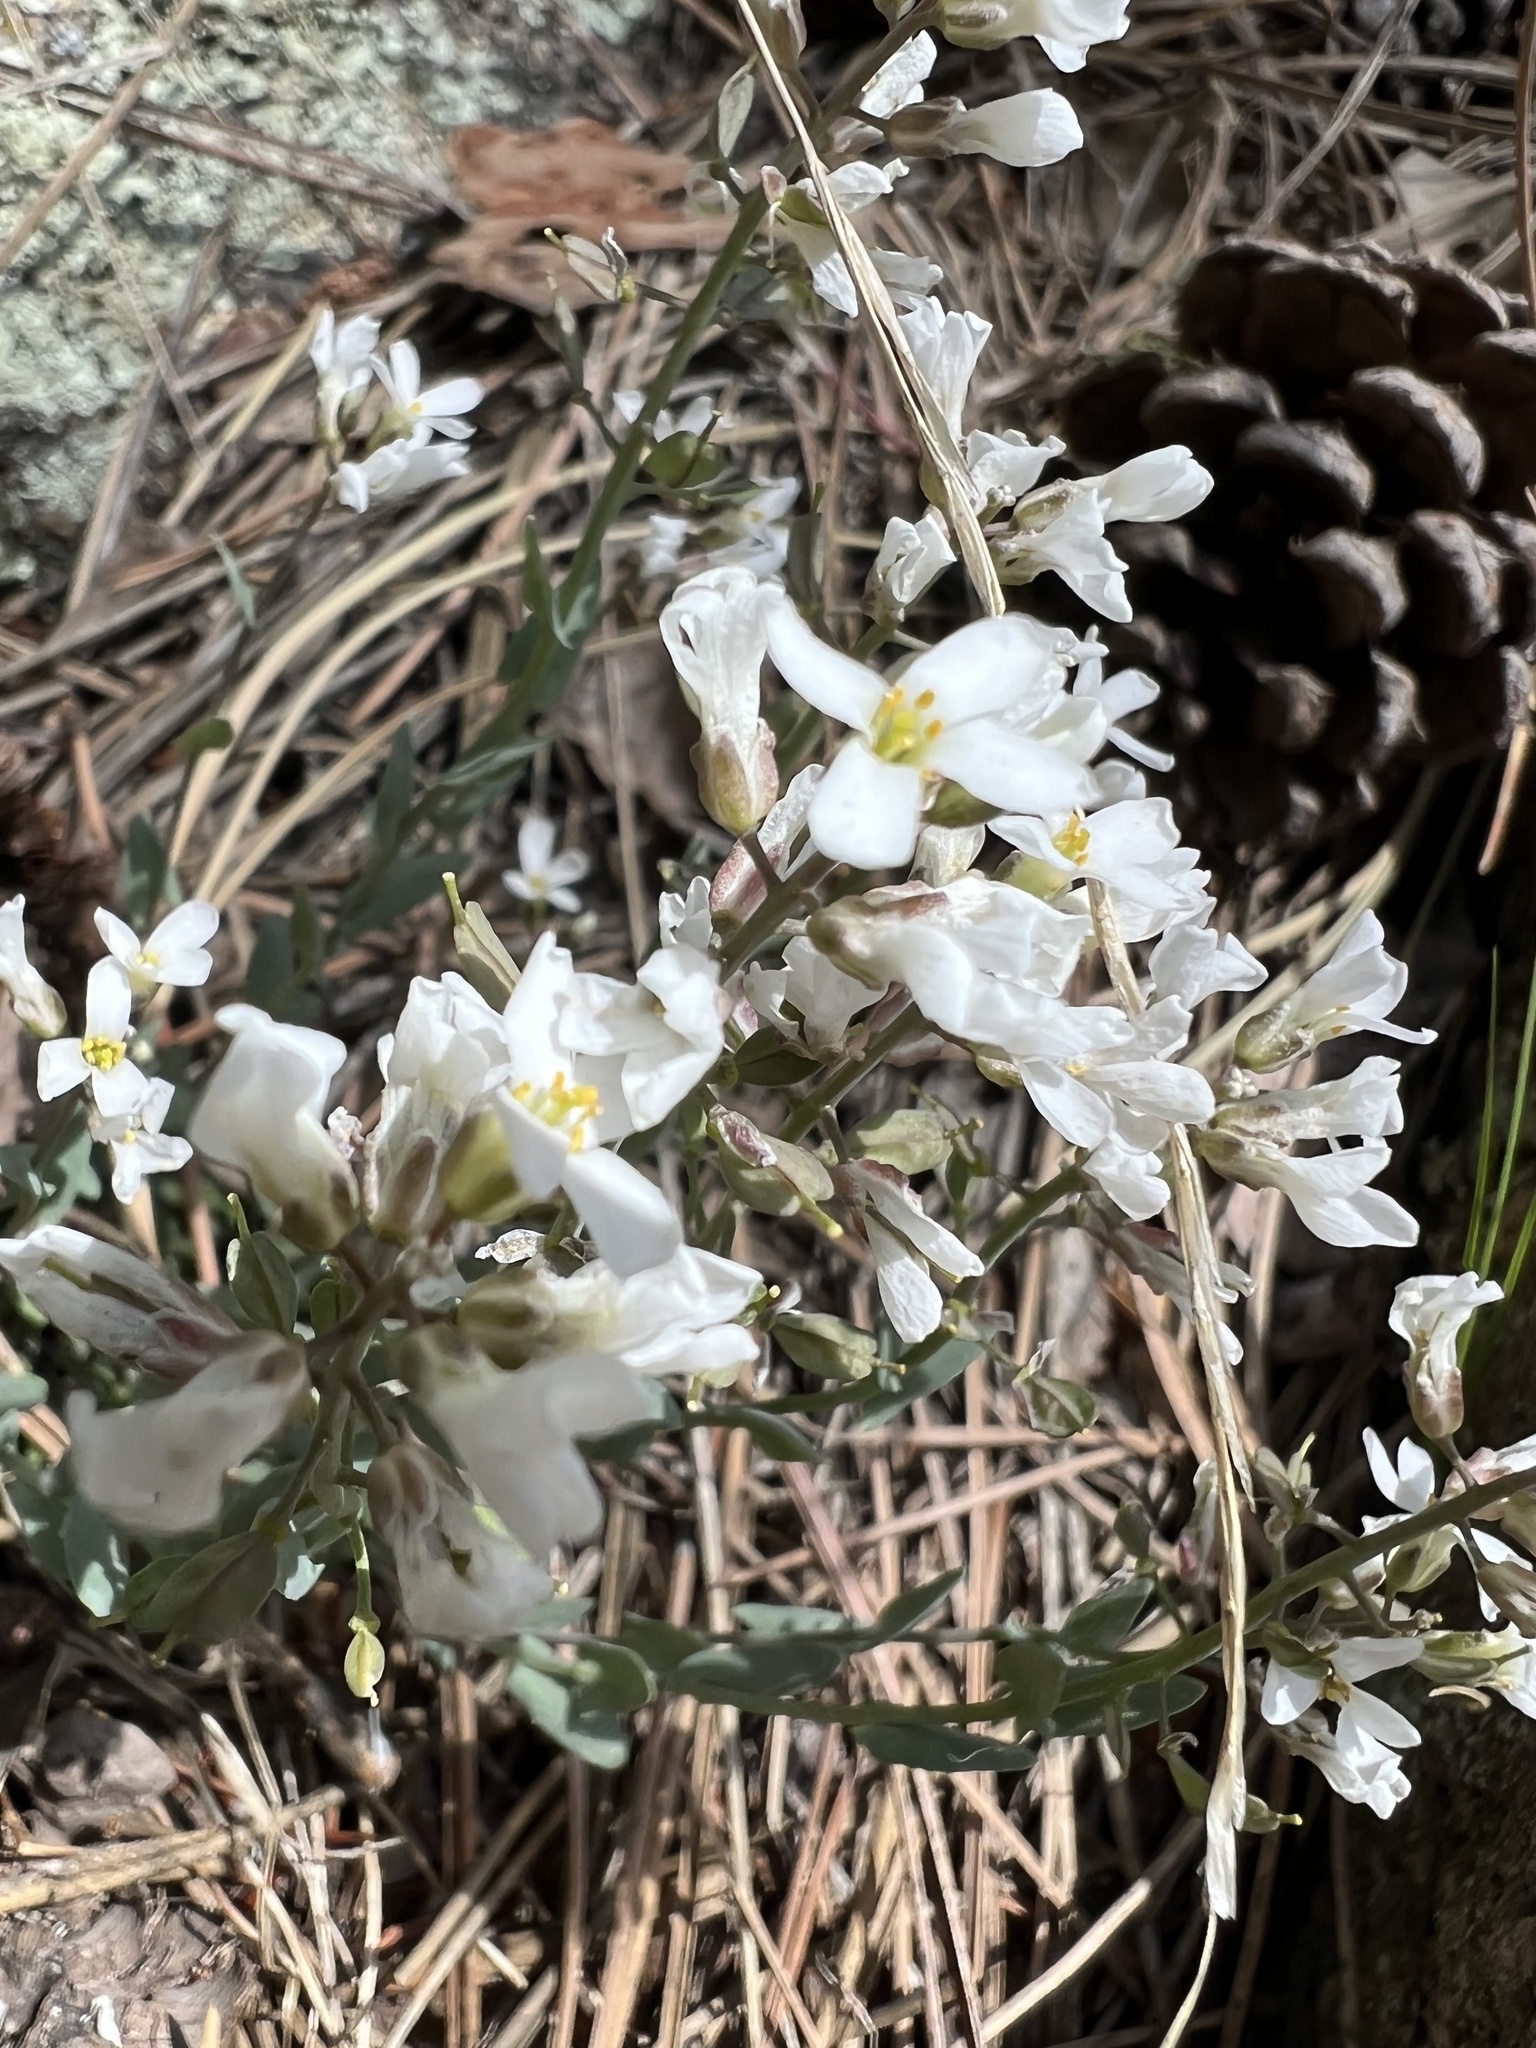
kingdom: Plantae
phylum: Tracheophyta
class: Magnoliopsida
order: Brassicales
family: Brassicaceae
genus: Noccaea
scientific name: Noccaea fendleri
